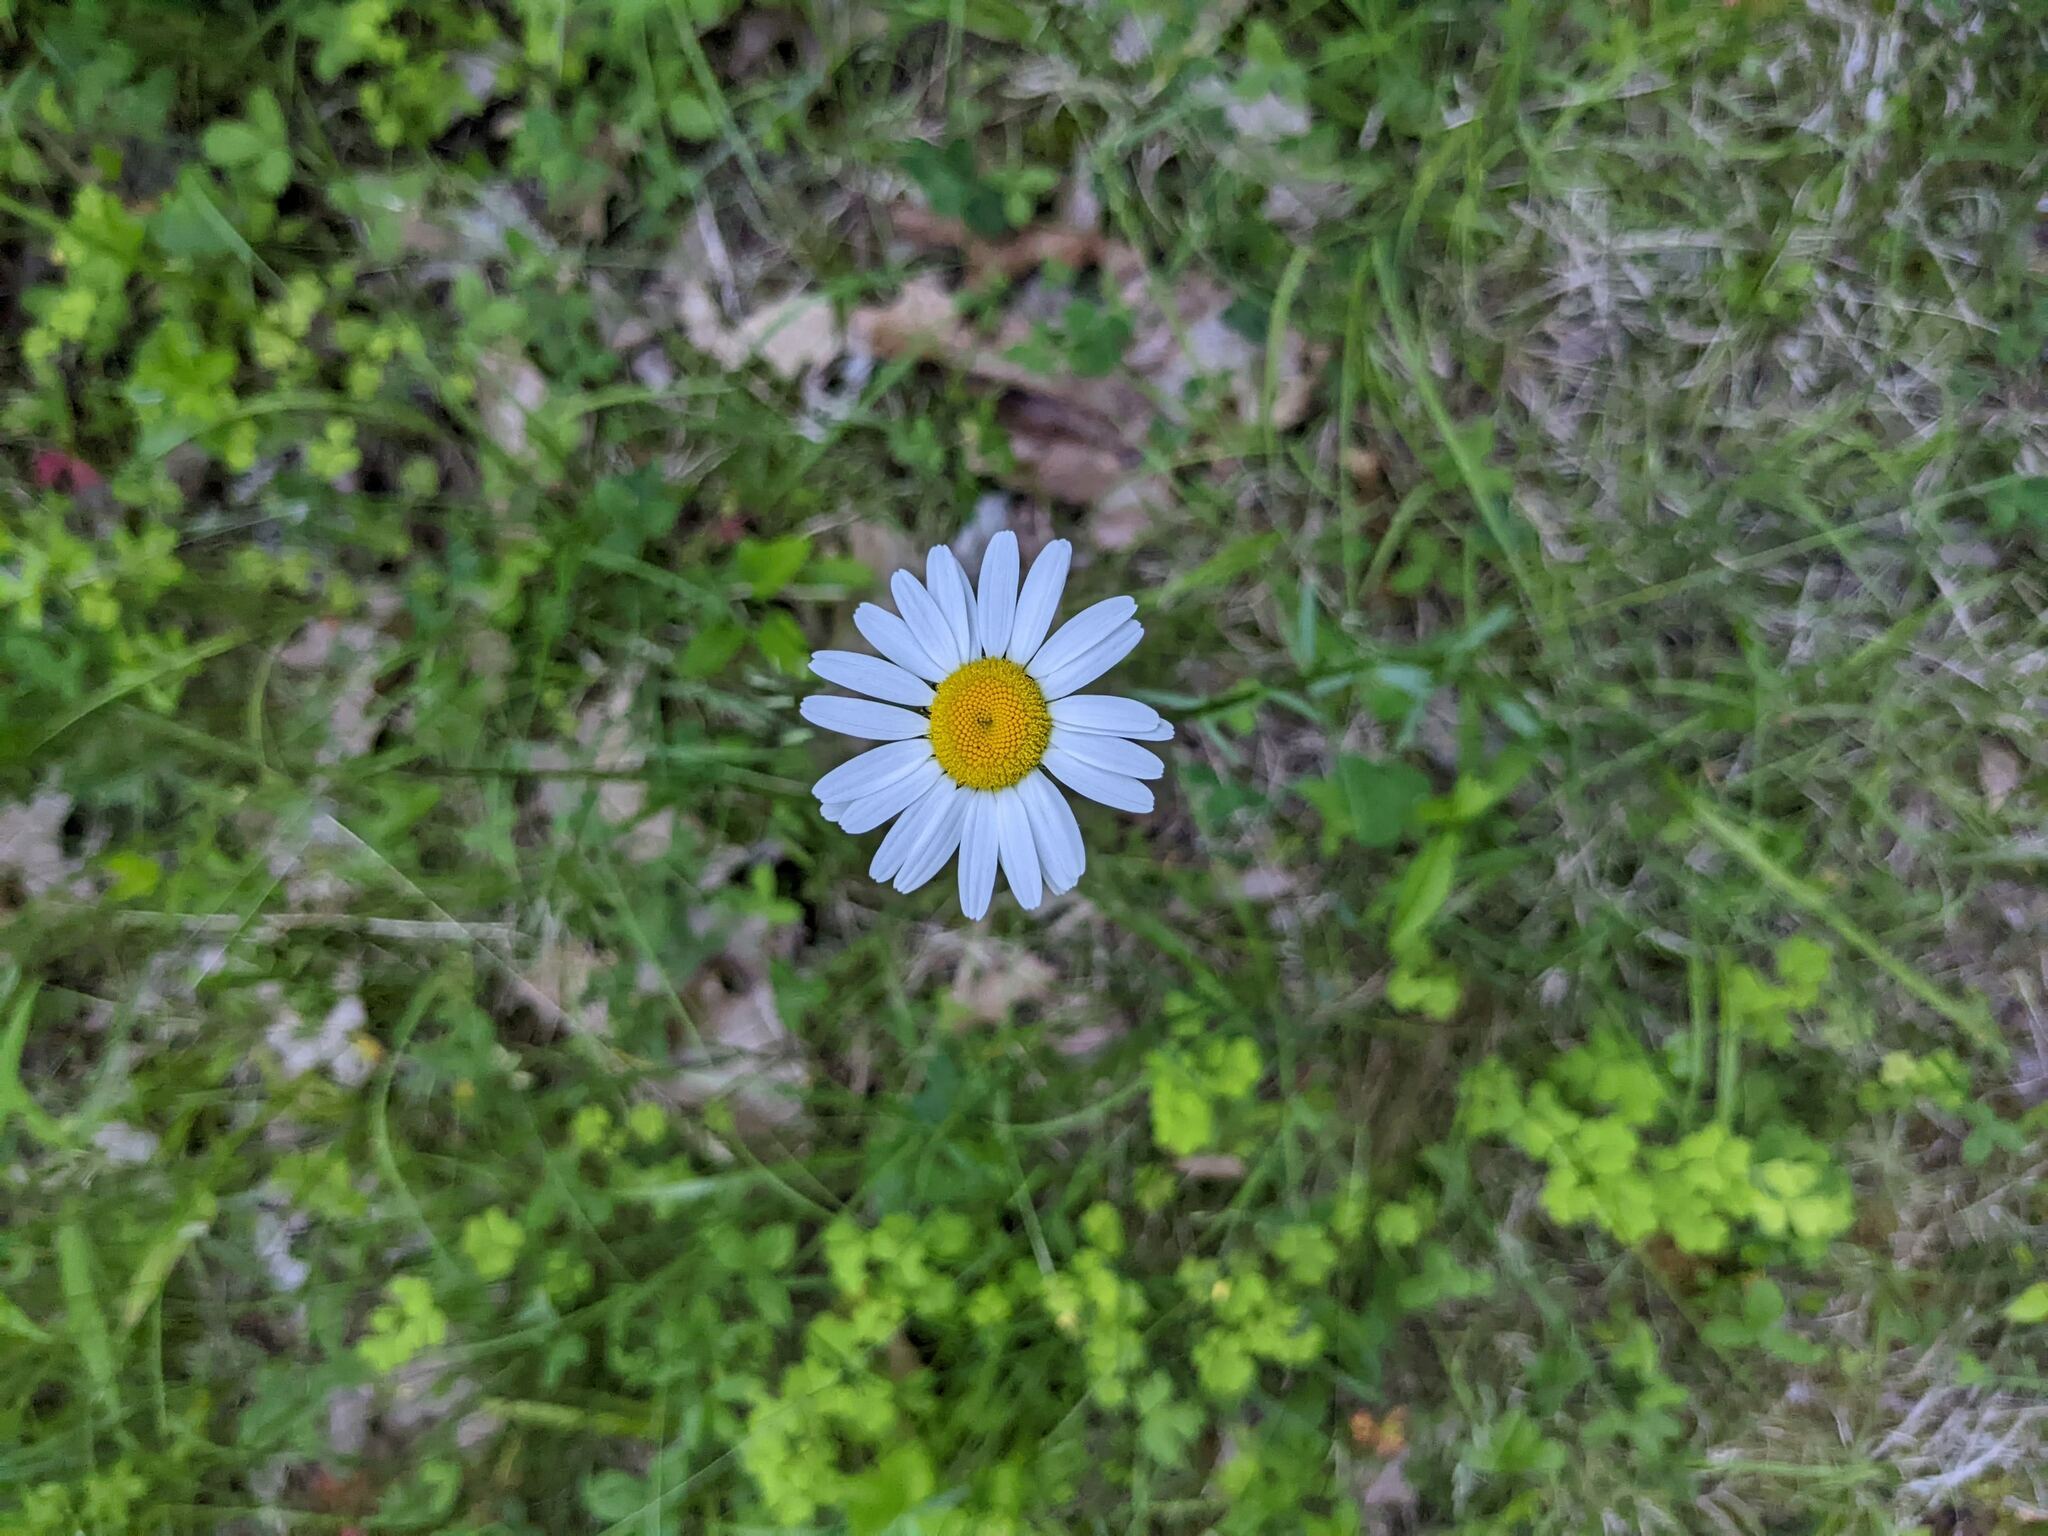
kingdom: Plantae
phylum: Tracheophyta
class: Magnoliopsida
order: Asterales
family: Asteraceae
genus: Leucanthemum
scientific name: Leucanthemum vulgare
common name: Oxeye daisy
